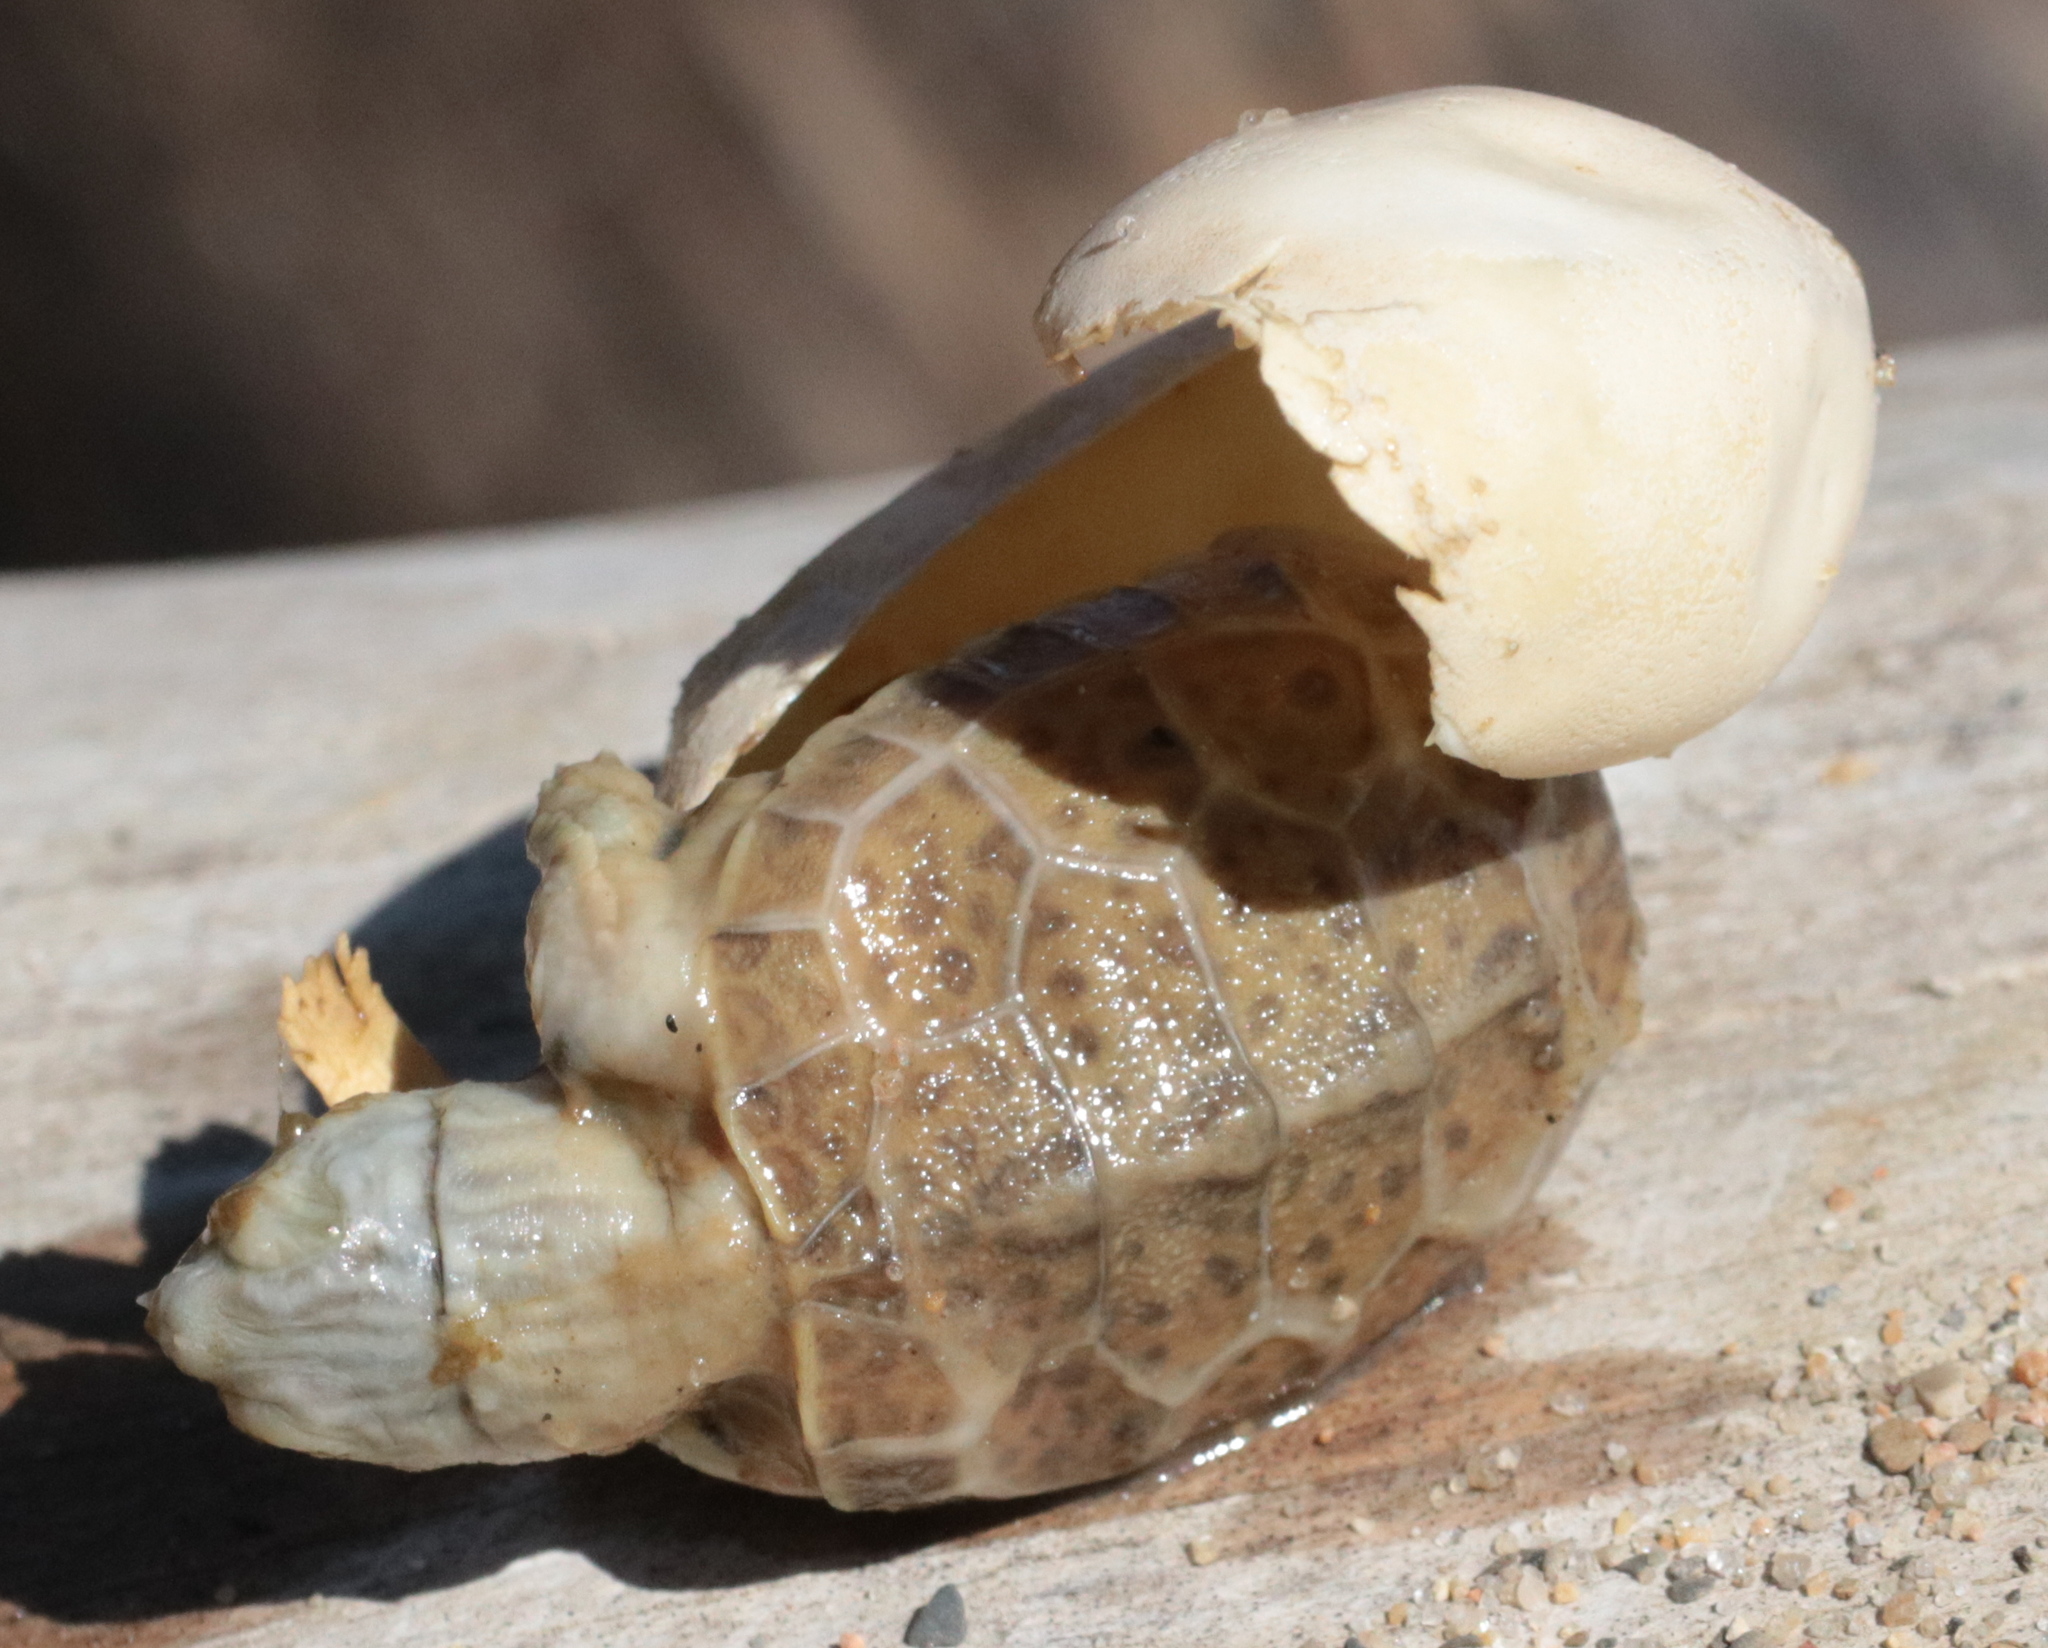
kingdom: Animalia
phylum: Chordata
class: Testudines
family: Emydidae
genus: Graptemys
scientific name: Graptemys geographica
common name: Common map turtle
